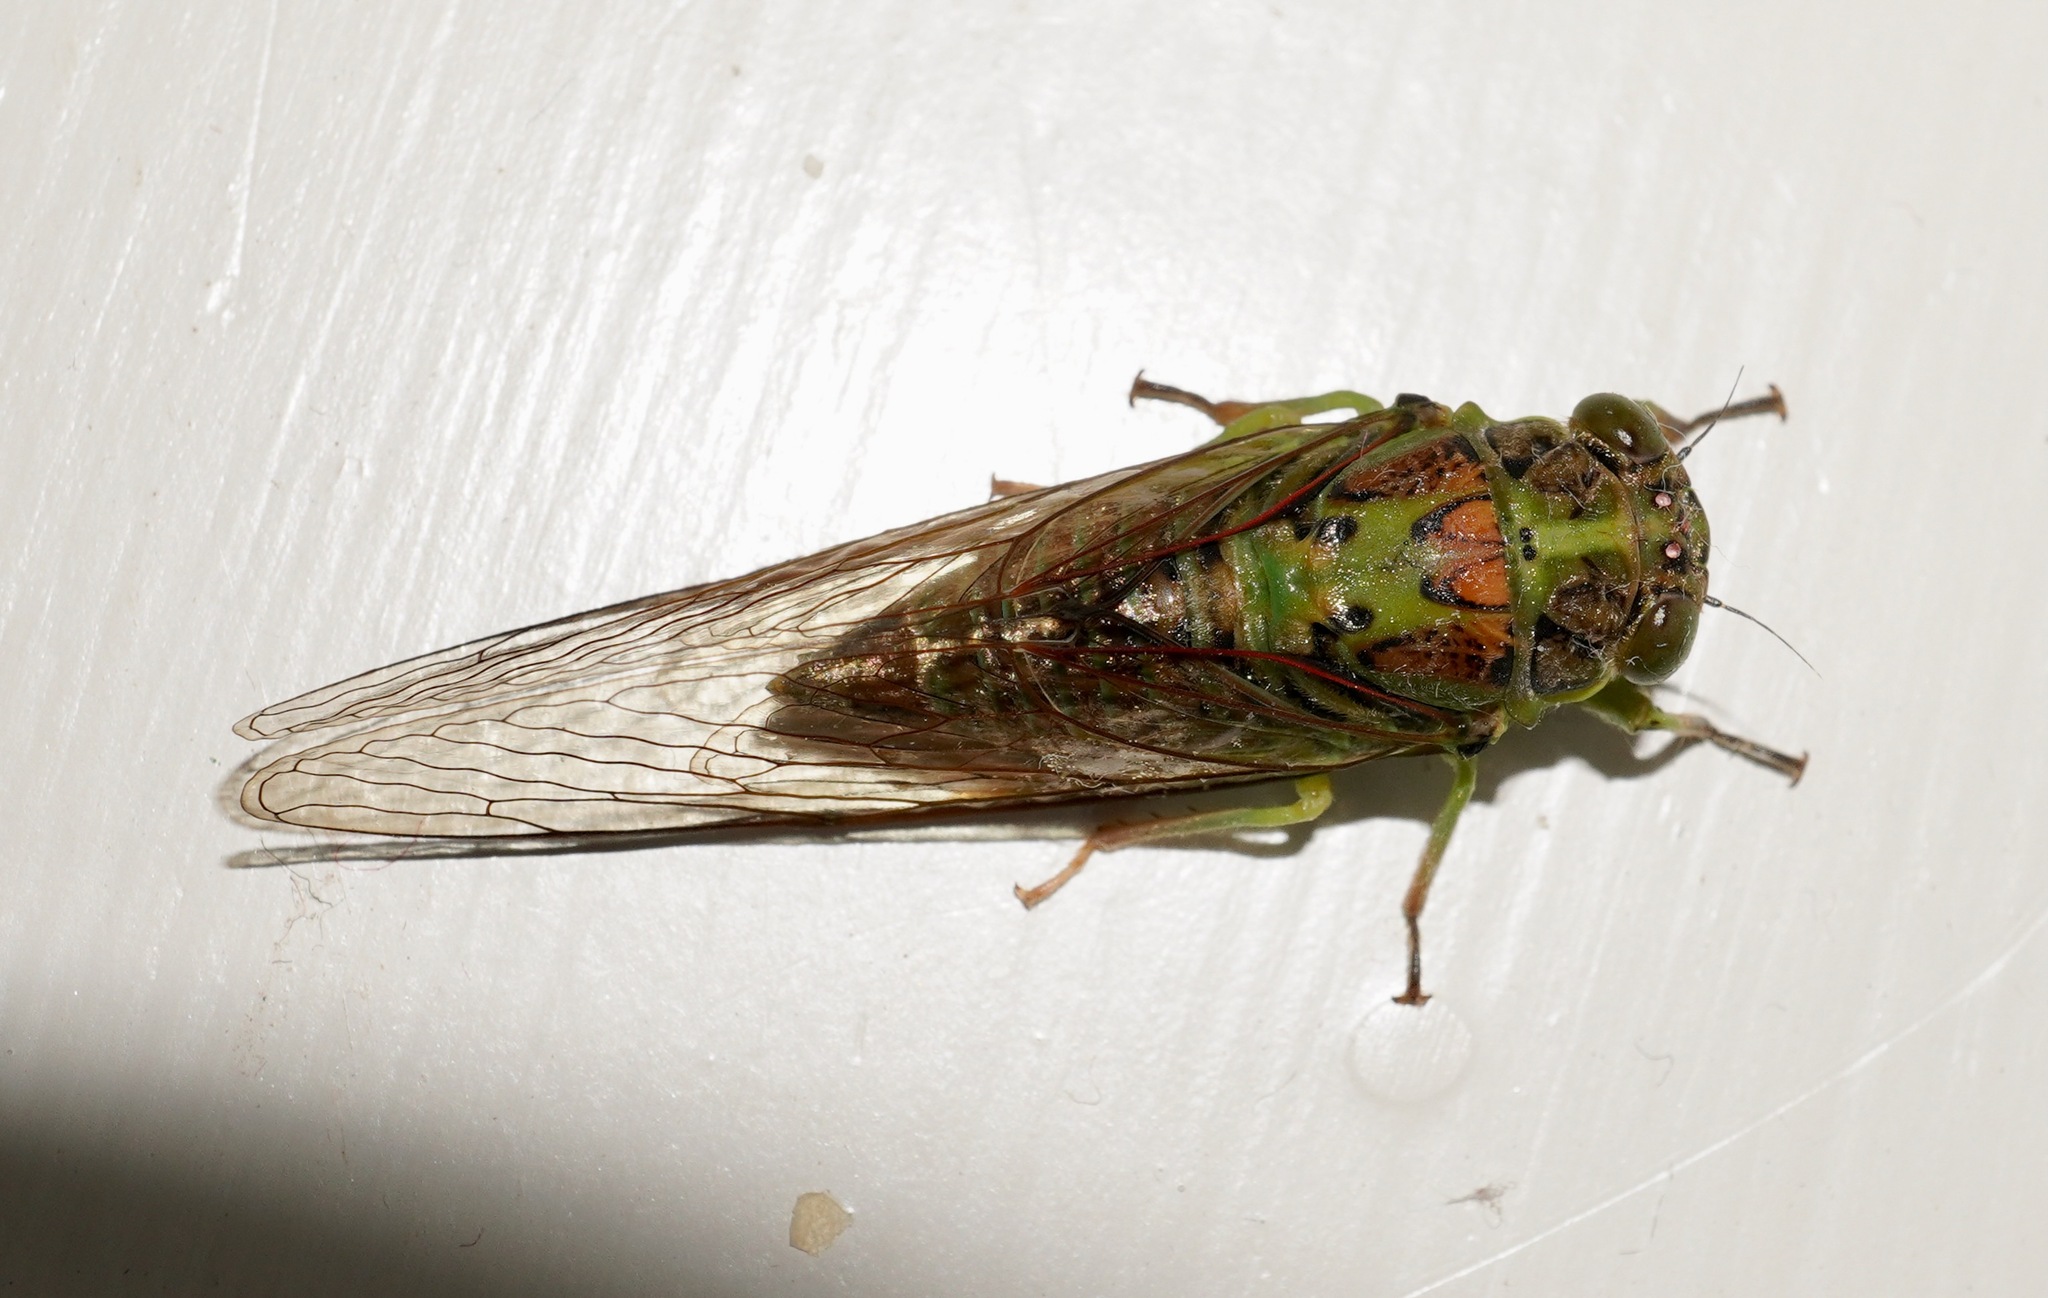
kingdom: Animalia
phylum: Arthropoda
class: Insecta
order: Hemiptera
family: Cicadidae
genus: Kikihia
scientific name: Kikihia scutellaris
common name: Lesser bronze cicada
